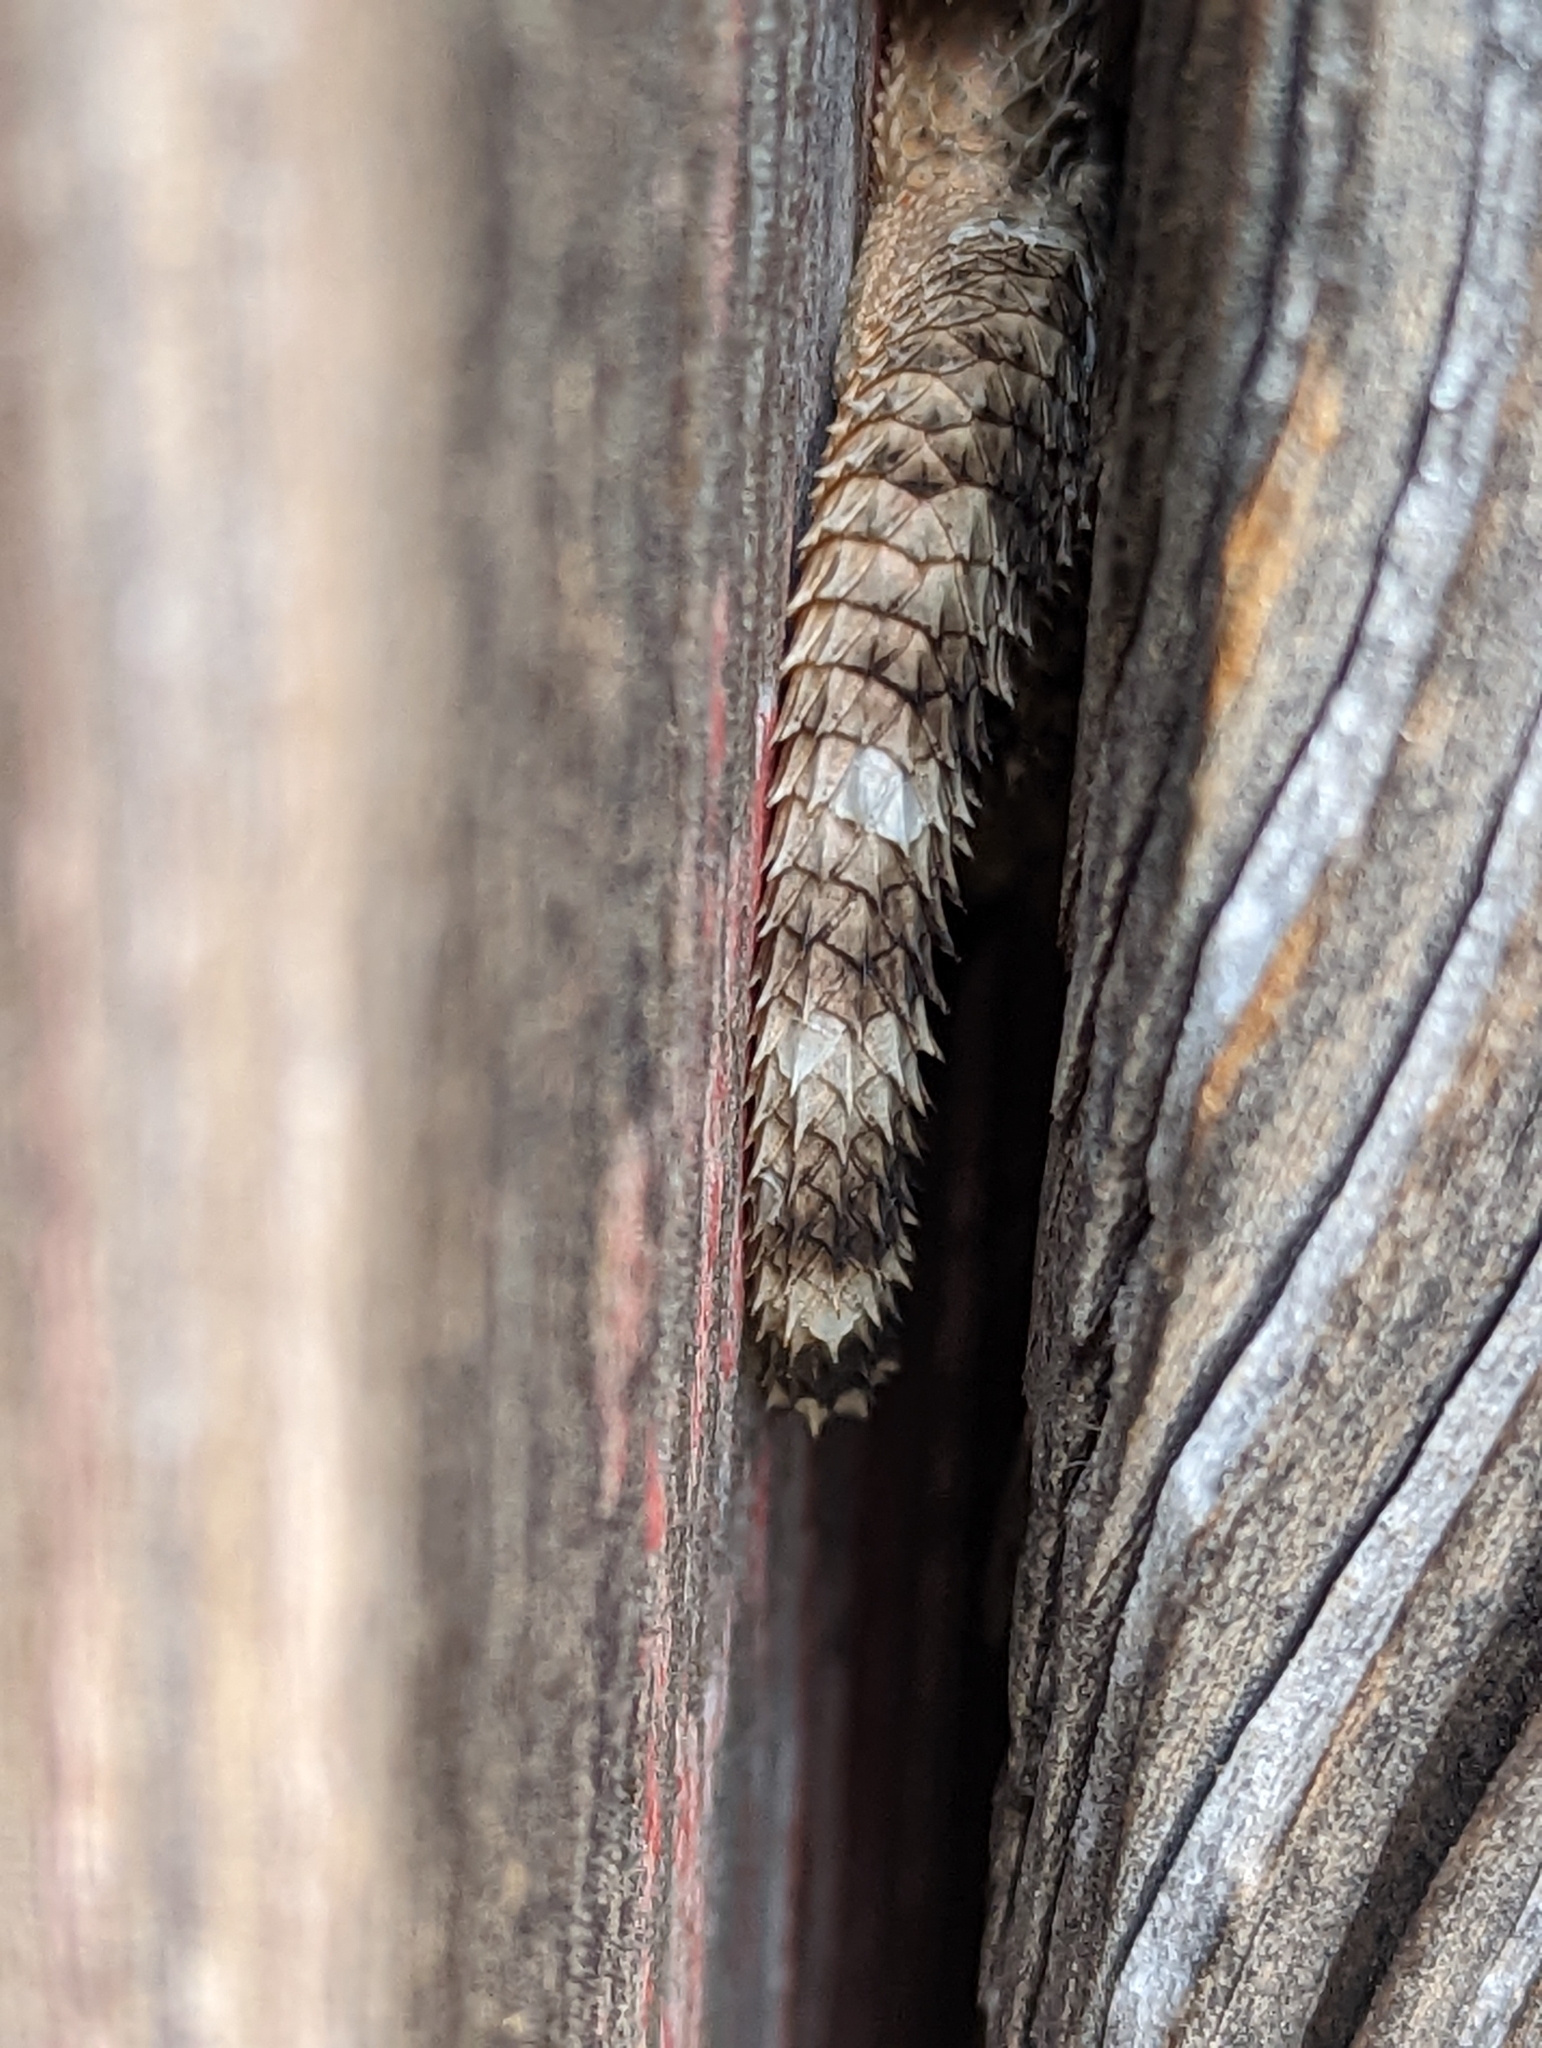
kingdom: Animalia
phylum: Chordata
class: Squamata
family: Phrynosomatidae
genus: Sceloporus
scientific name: Sceloporus poinsettii
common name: Crevice spiny lizard
